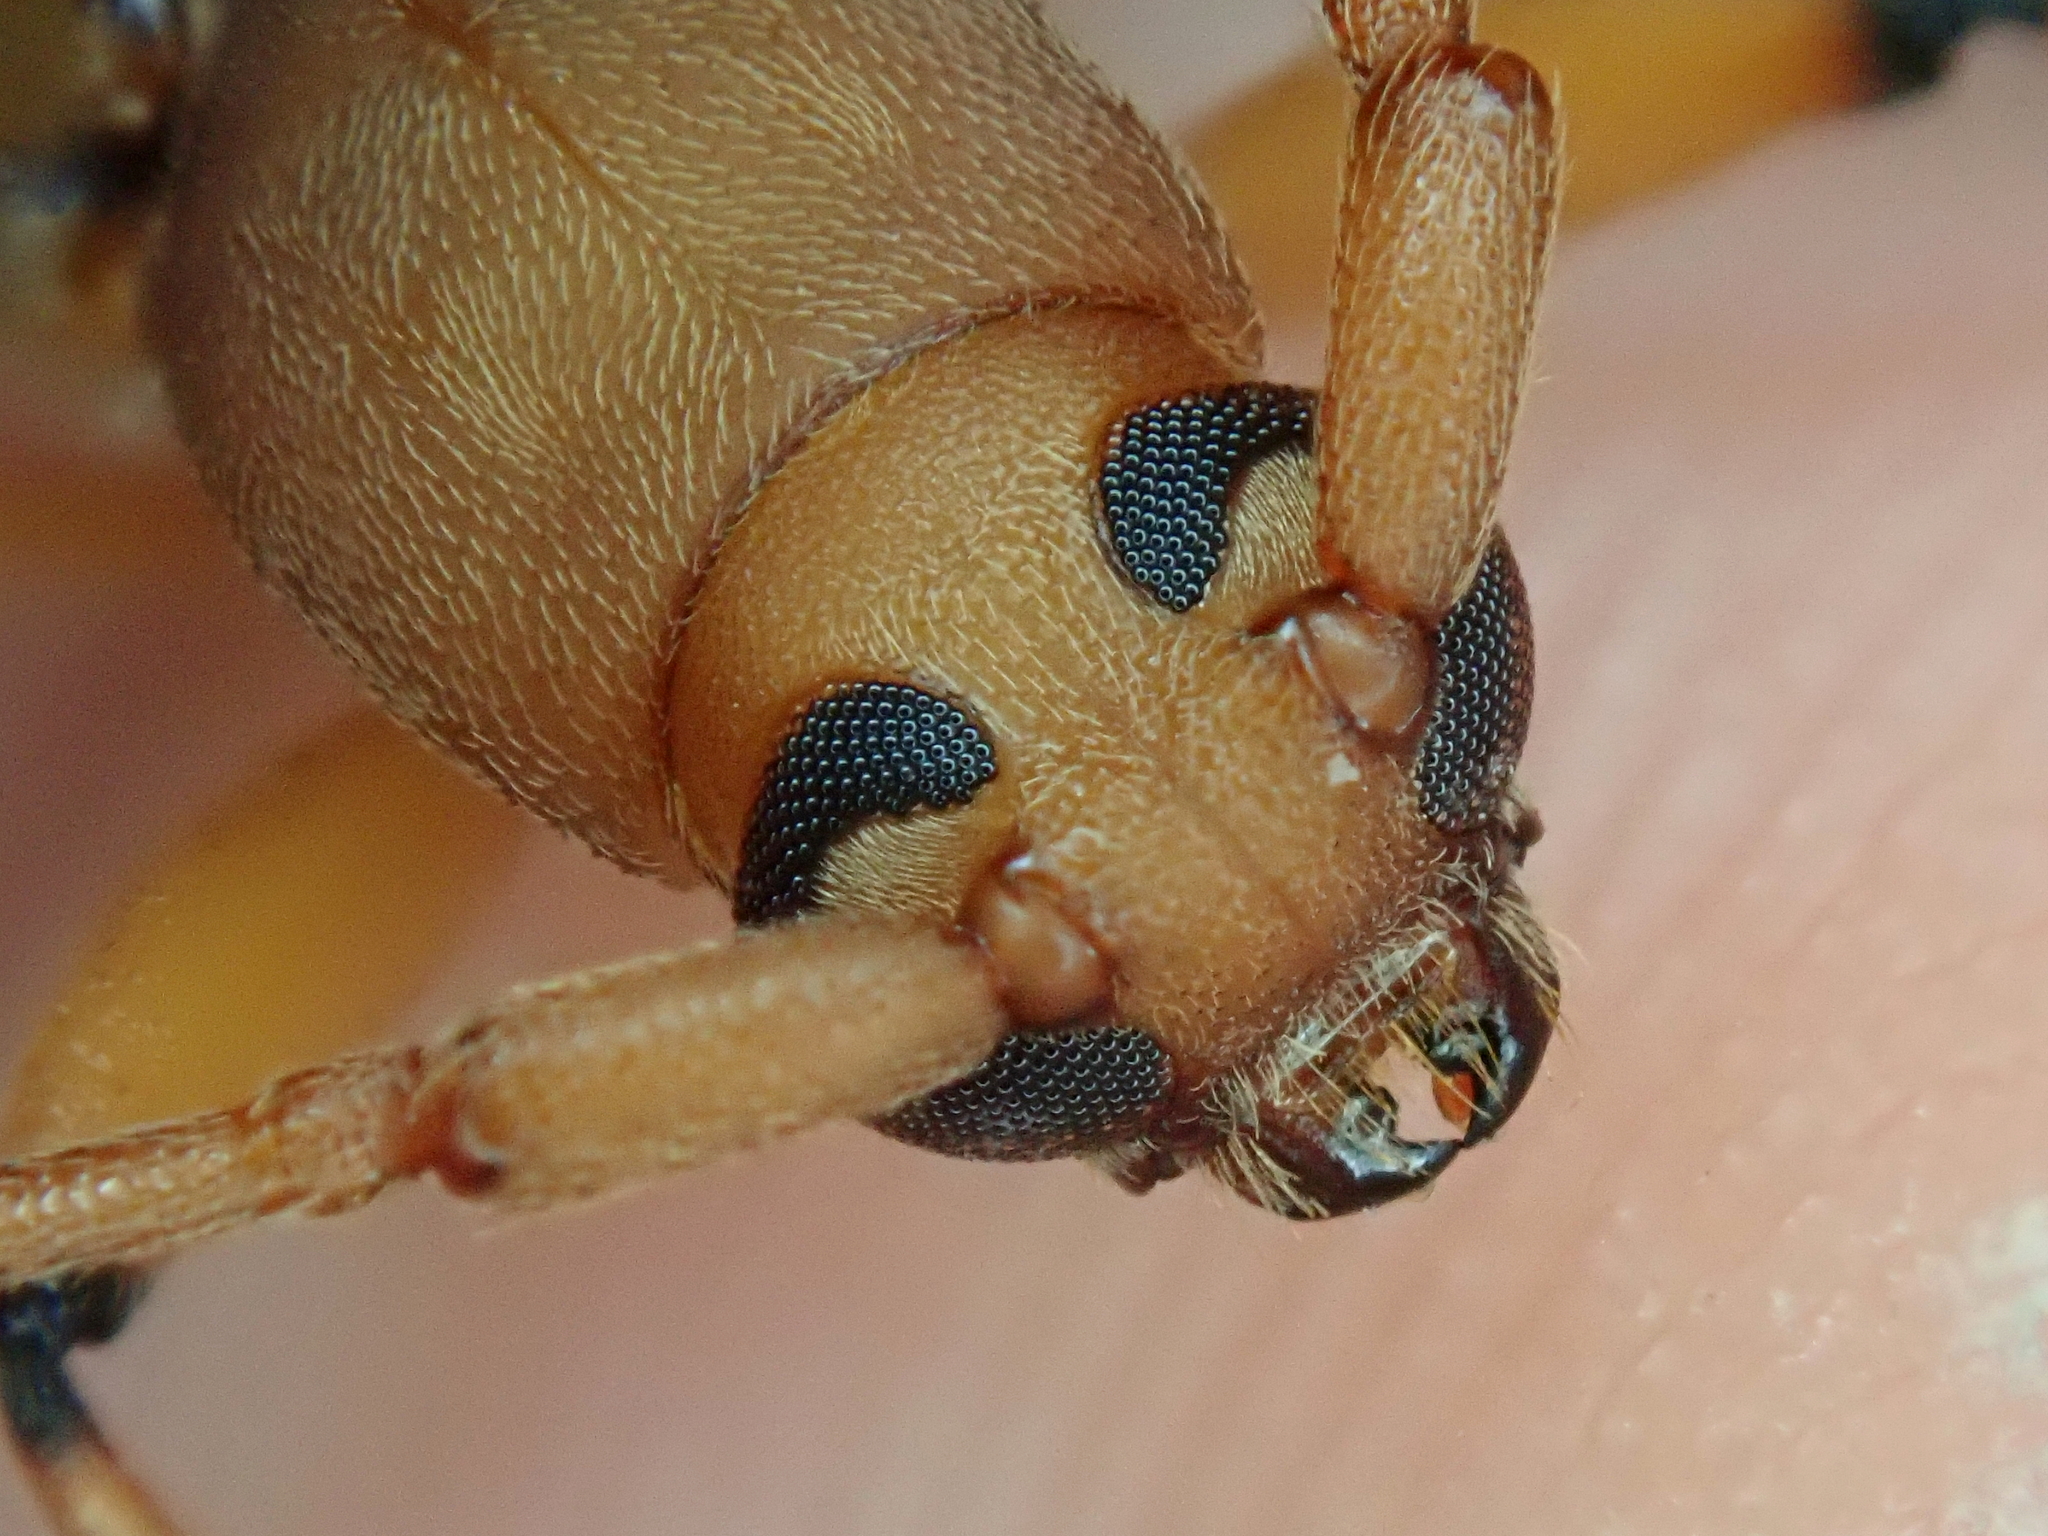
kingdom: Animalia
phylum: Arthropoda
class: Insecta
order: Coleoptera
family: Cerambycidae
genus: Achryson
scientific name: Achryson surinamum
